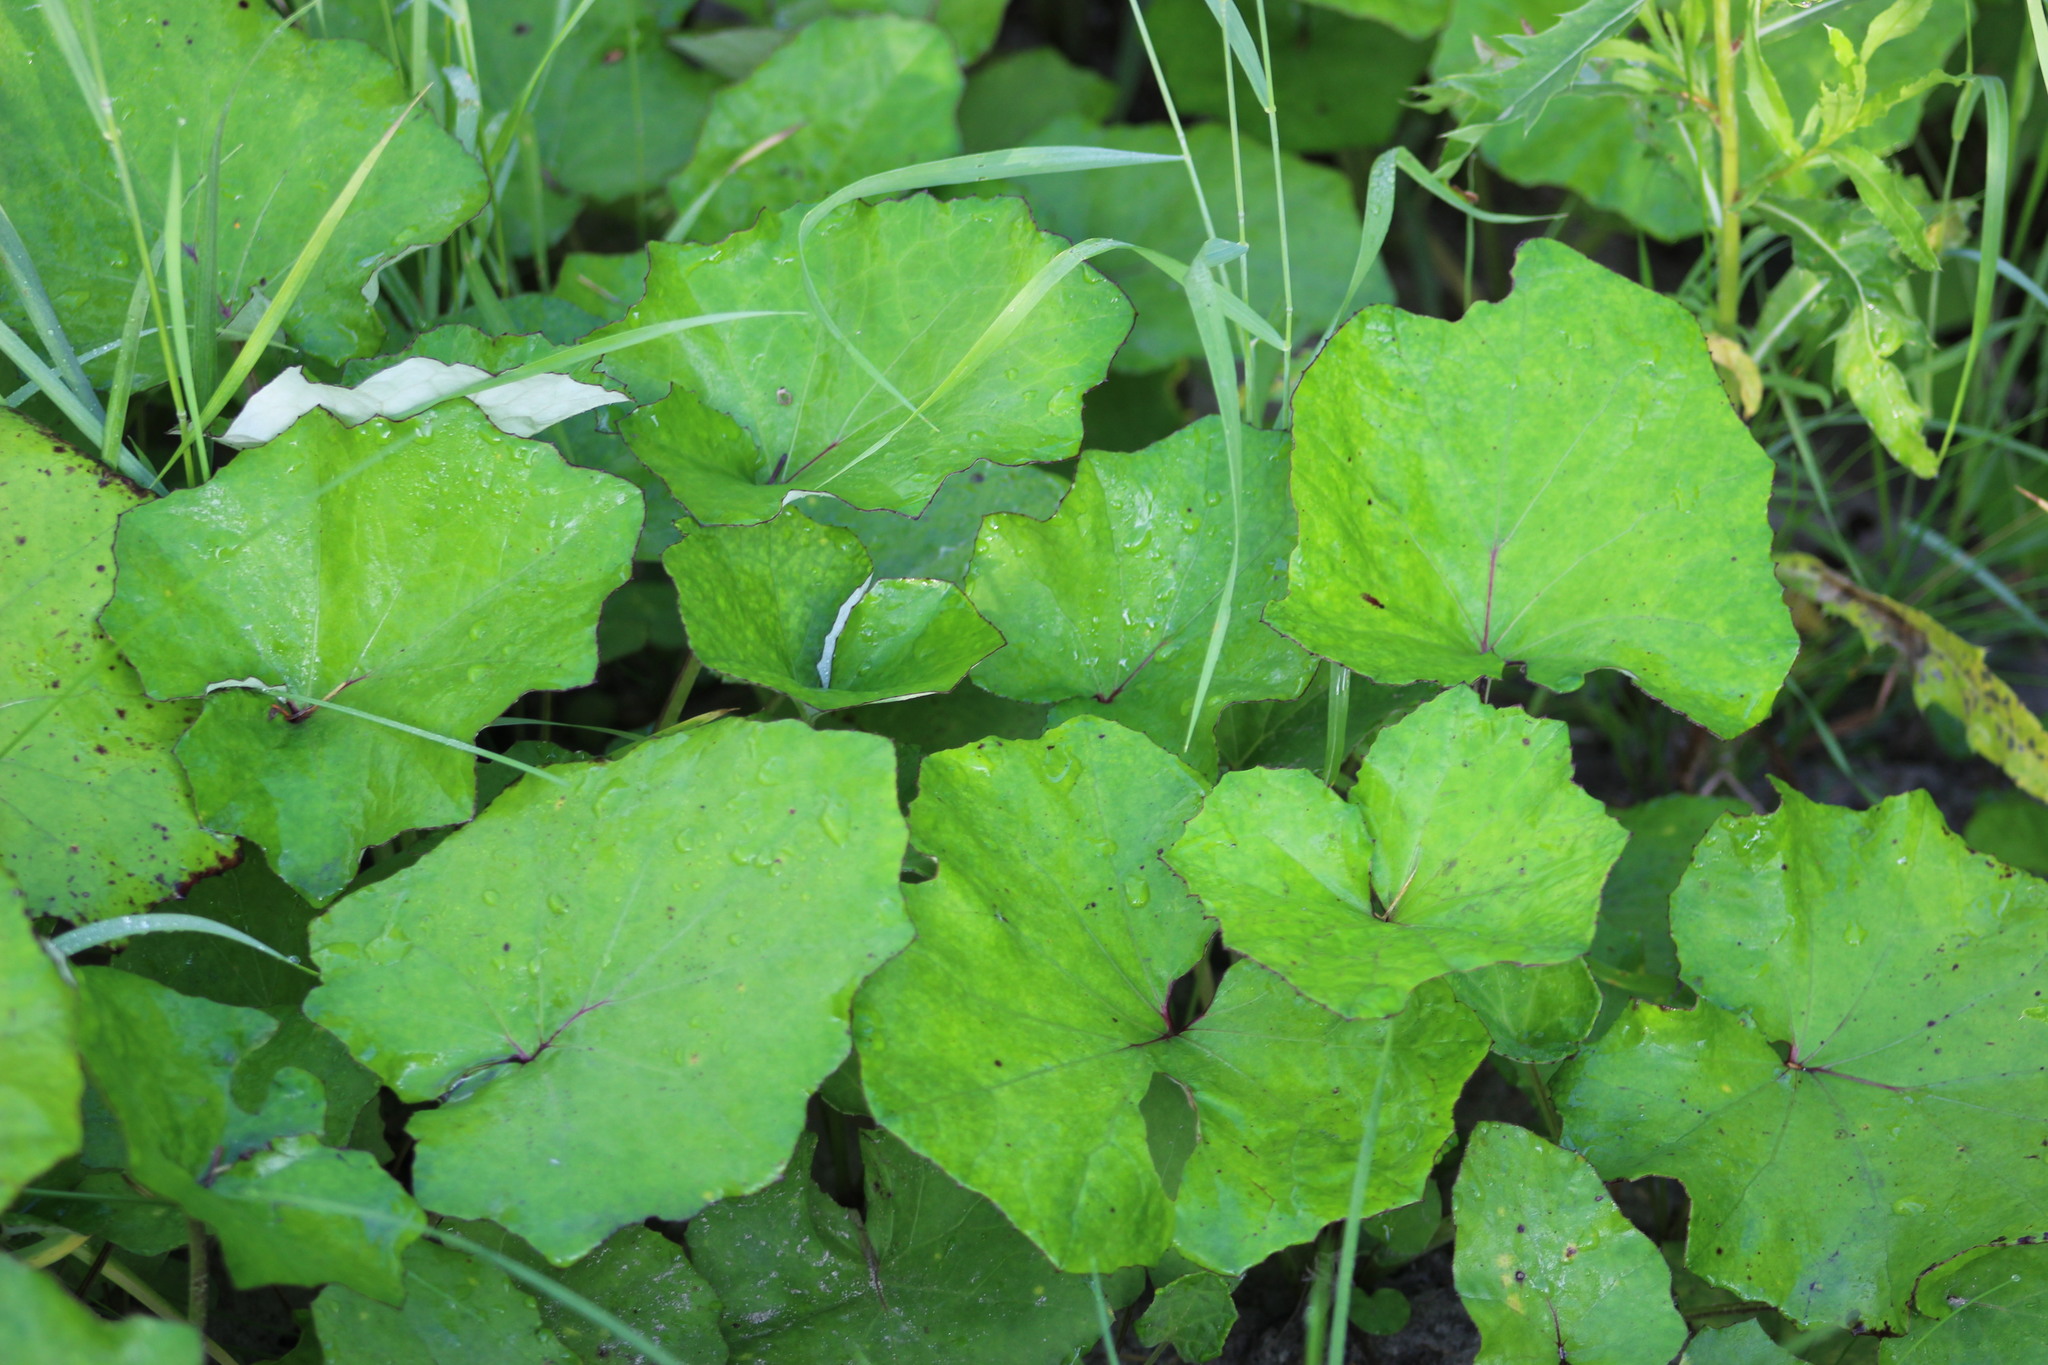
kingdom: Plantae
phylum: Tracheophyta
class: Magnoliopsida
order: Asterales
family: Asteraceae
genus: Tussilago
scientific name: Tussilago farfara
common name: Coltsfoot
